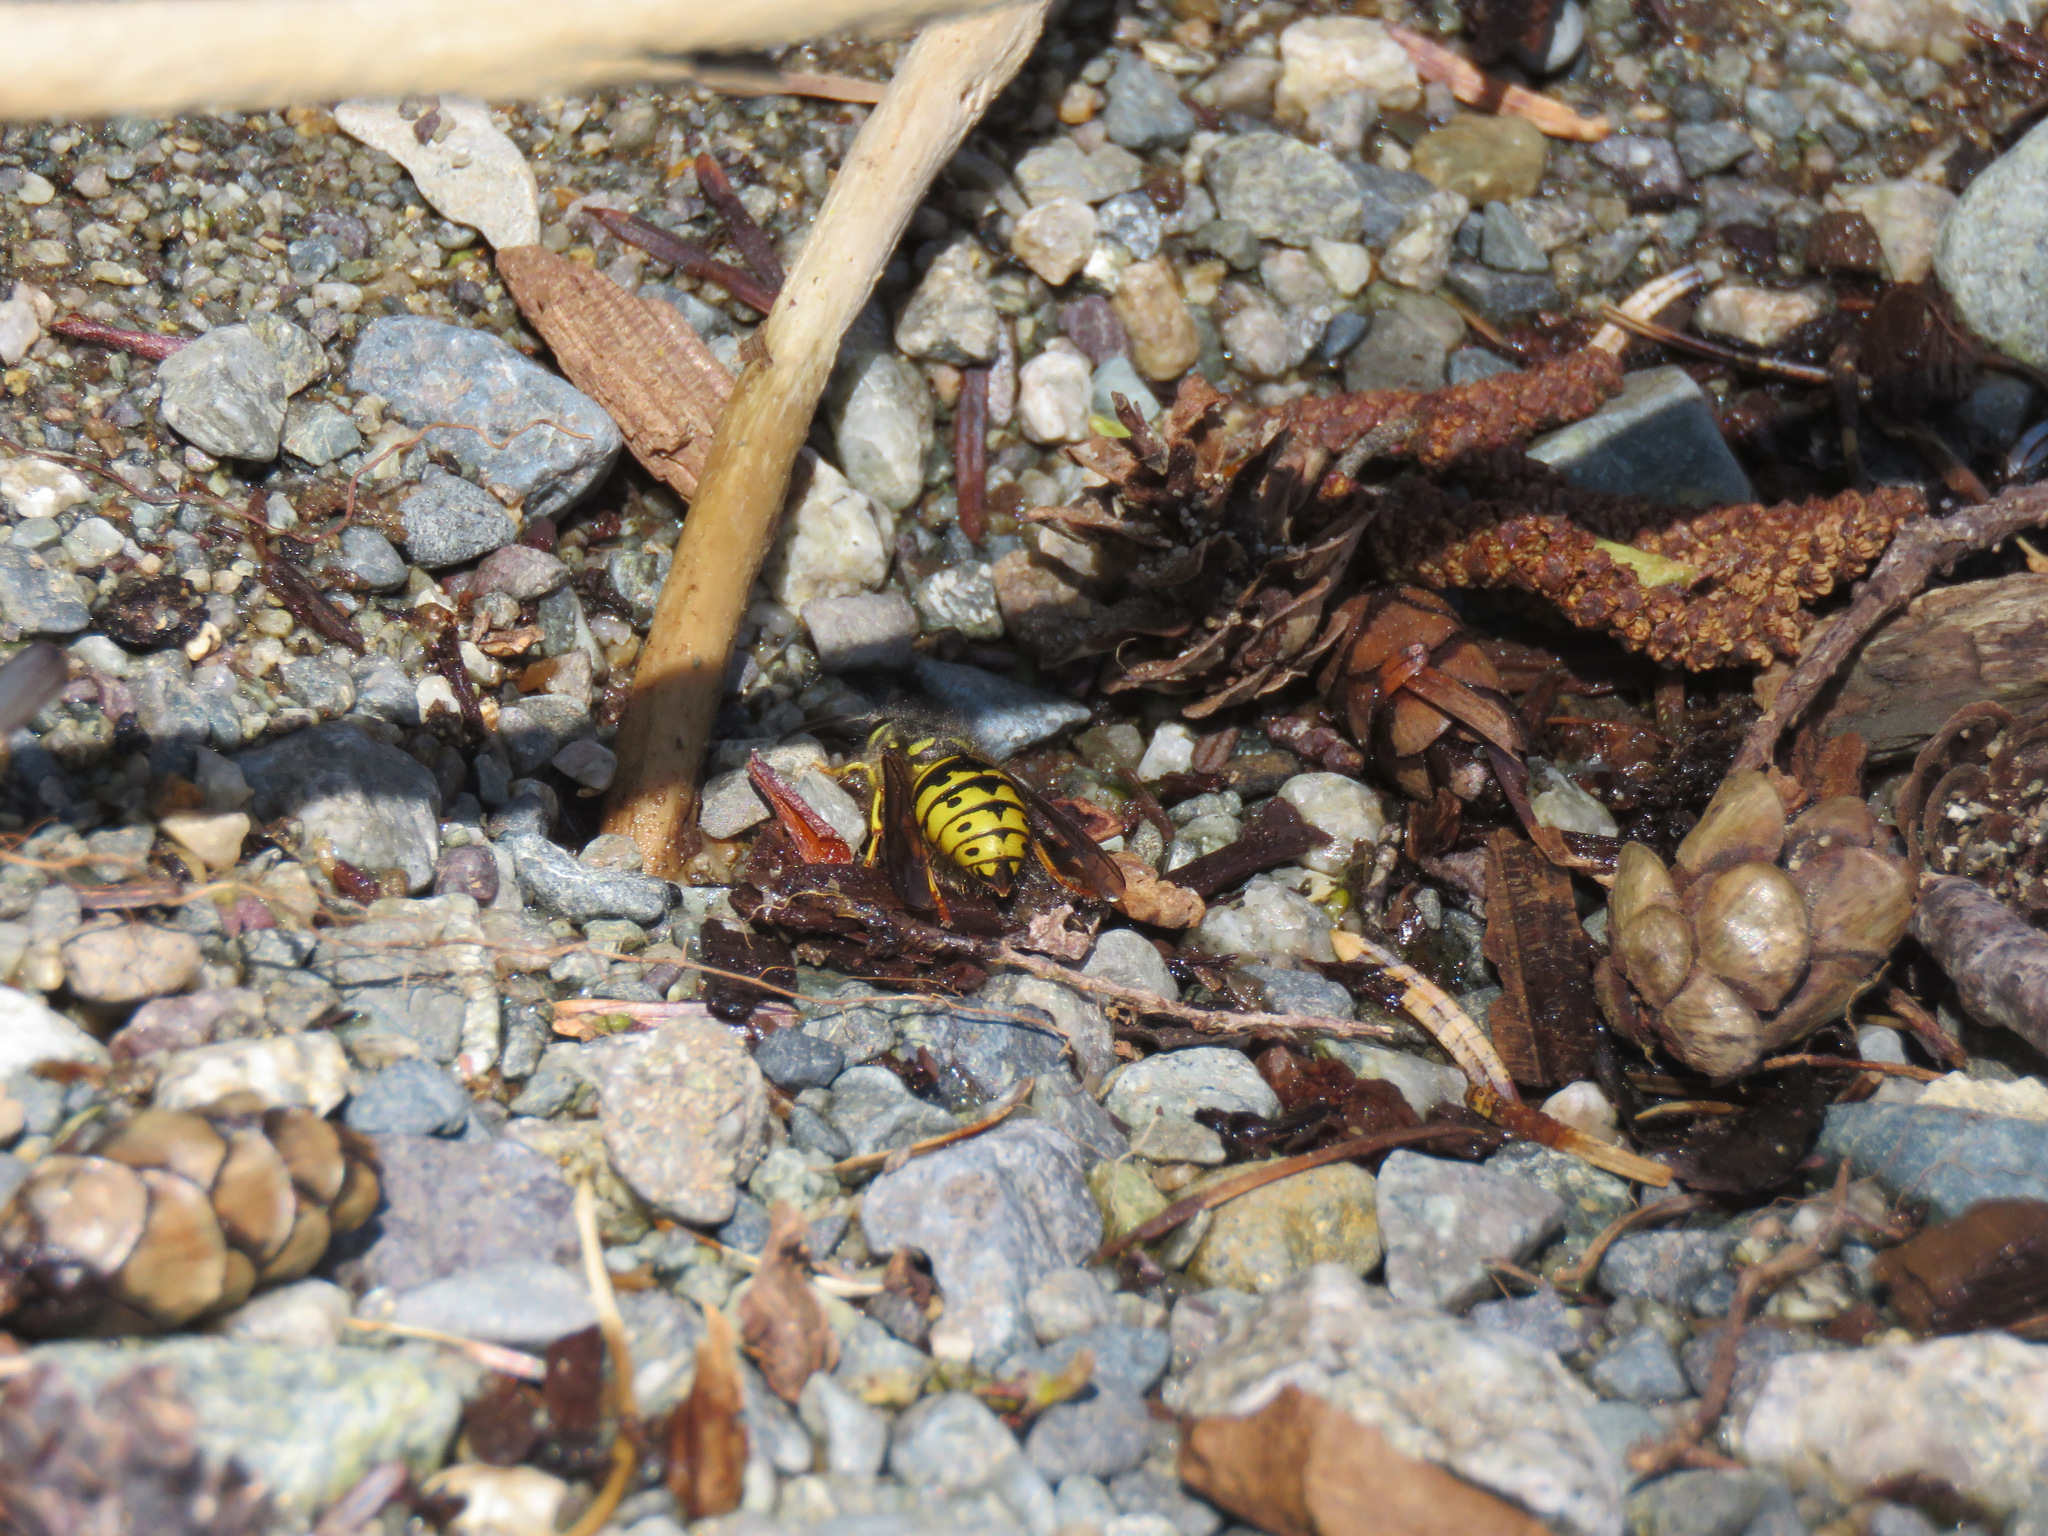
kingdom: Animalia
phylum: Arthropoda
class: Insecta
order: Hymenoptera
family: Vespidae
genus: Dolichovespula
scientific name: Dolichovespula arenaria
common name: Aerial yellowjacket
